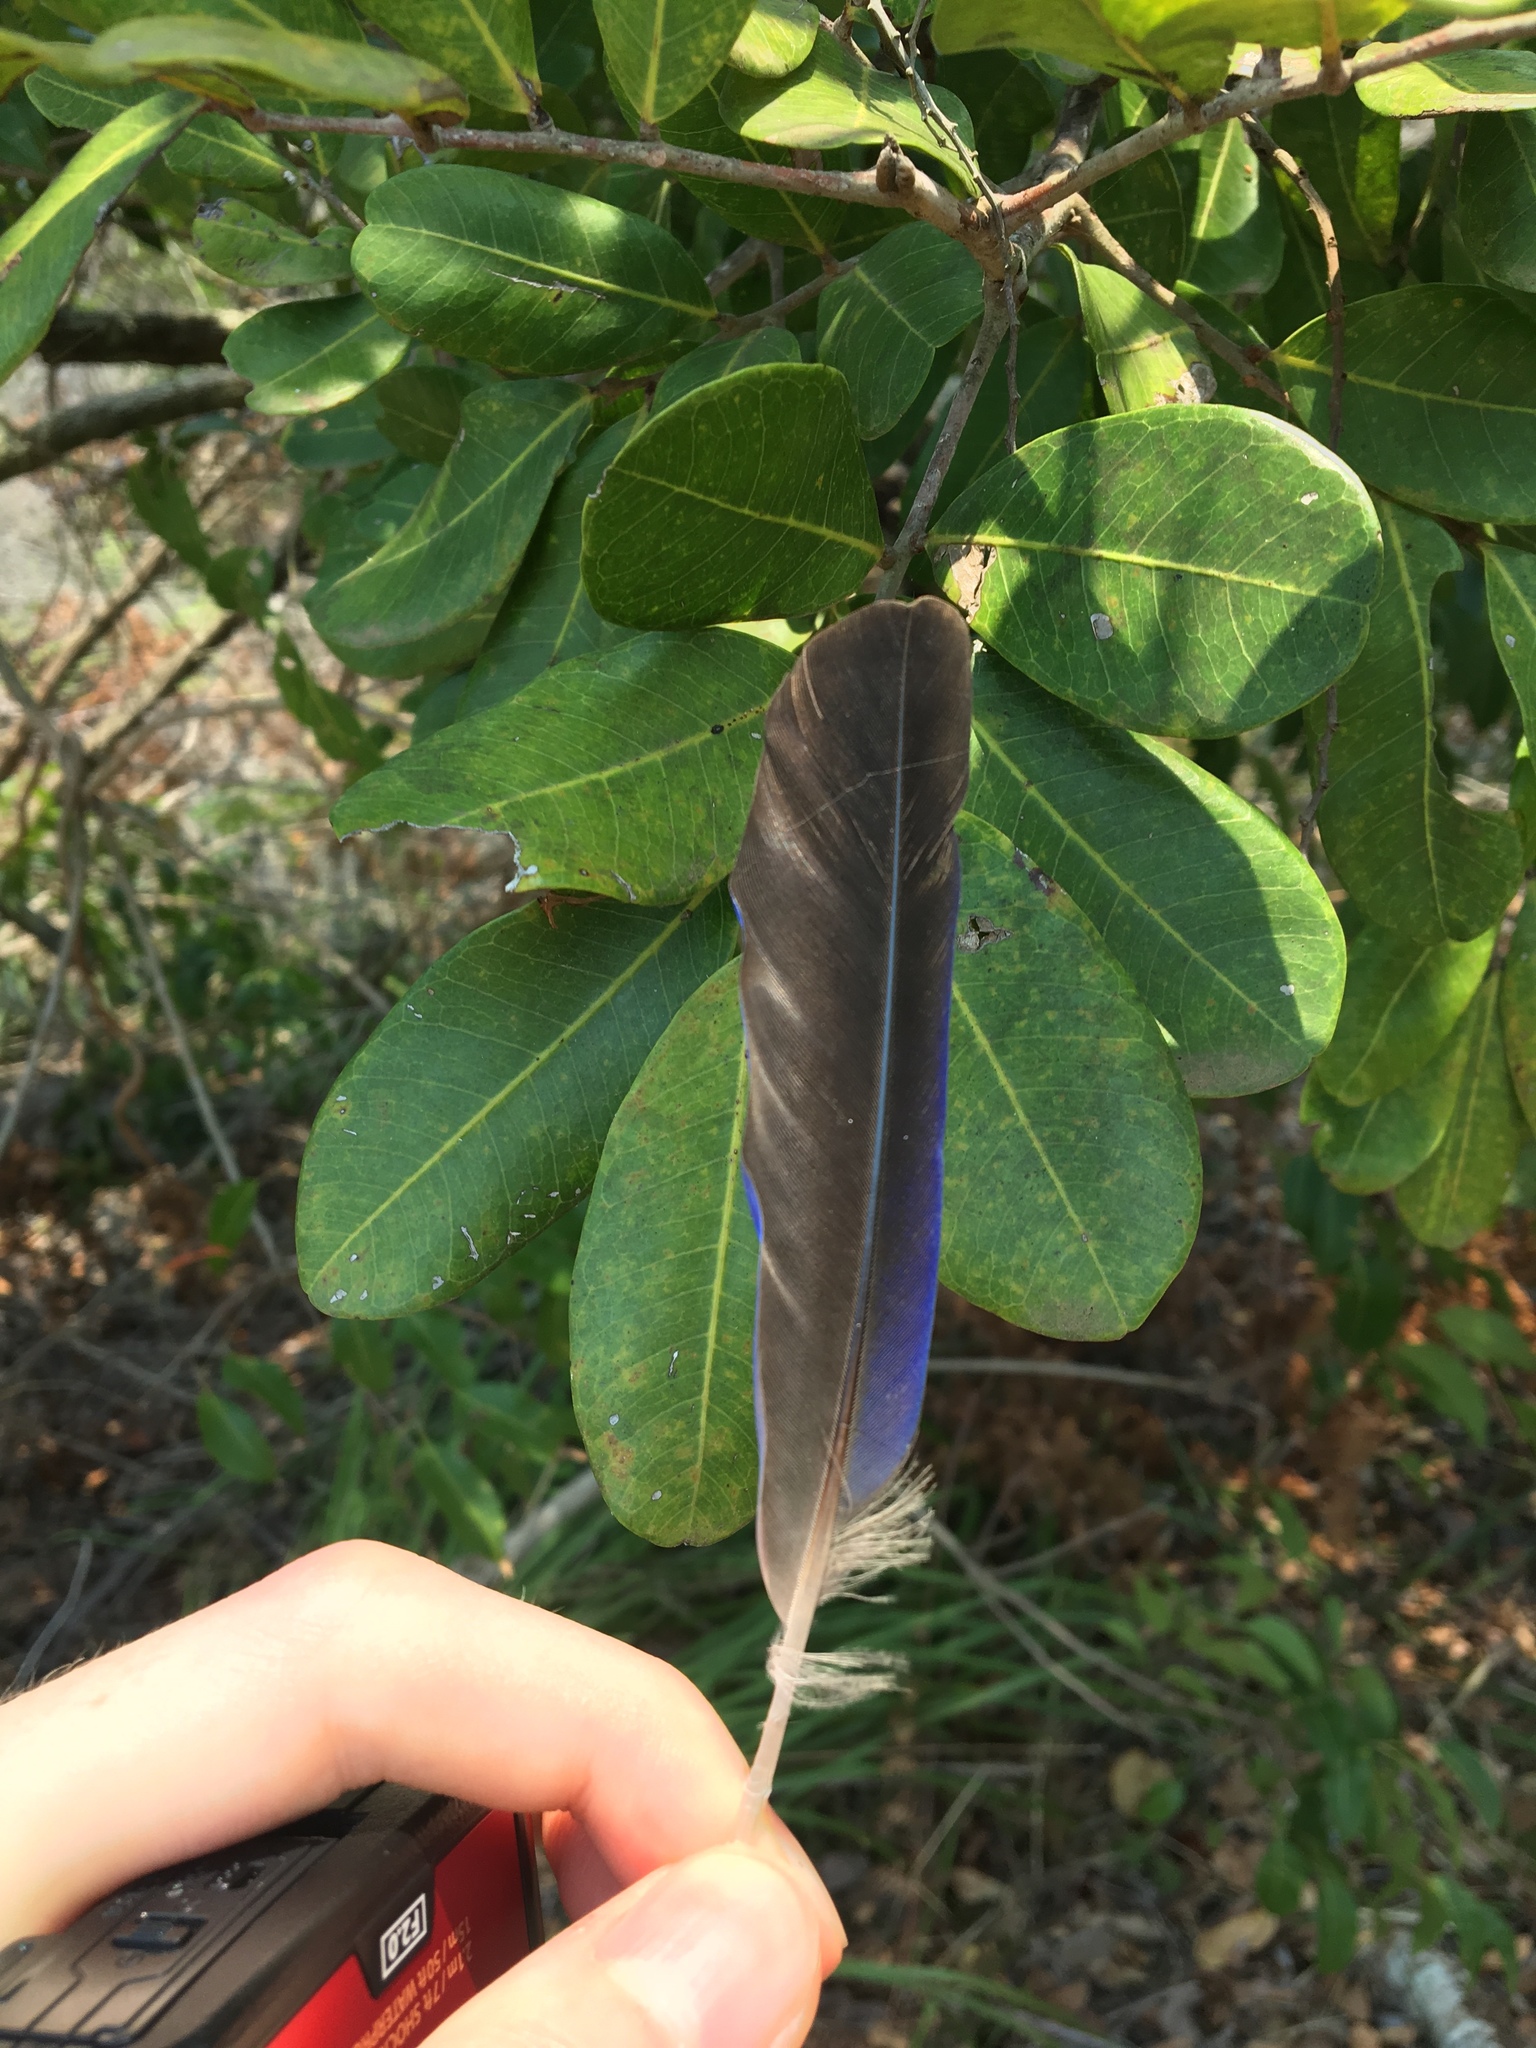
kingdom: Animalia
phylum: Chordata
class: Aves
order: Coraciiformes
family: Coraciidae
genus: Eurystomus
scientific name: Eurystomus orientalis
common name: Oriental dollarbird
